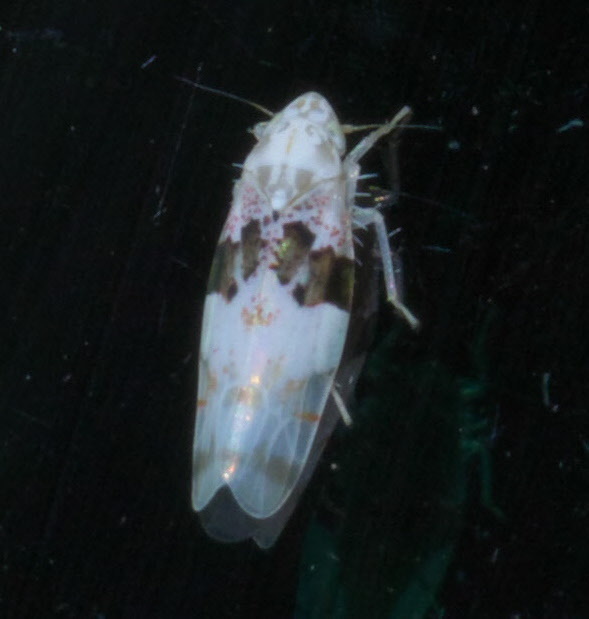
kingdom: Animalia
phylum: Arthropoda
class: Insecta
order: Hemiptera
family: Cicadellidae
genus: Hymetta
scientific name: Hymetta anthisma
